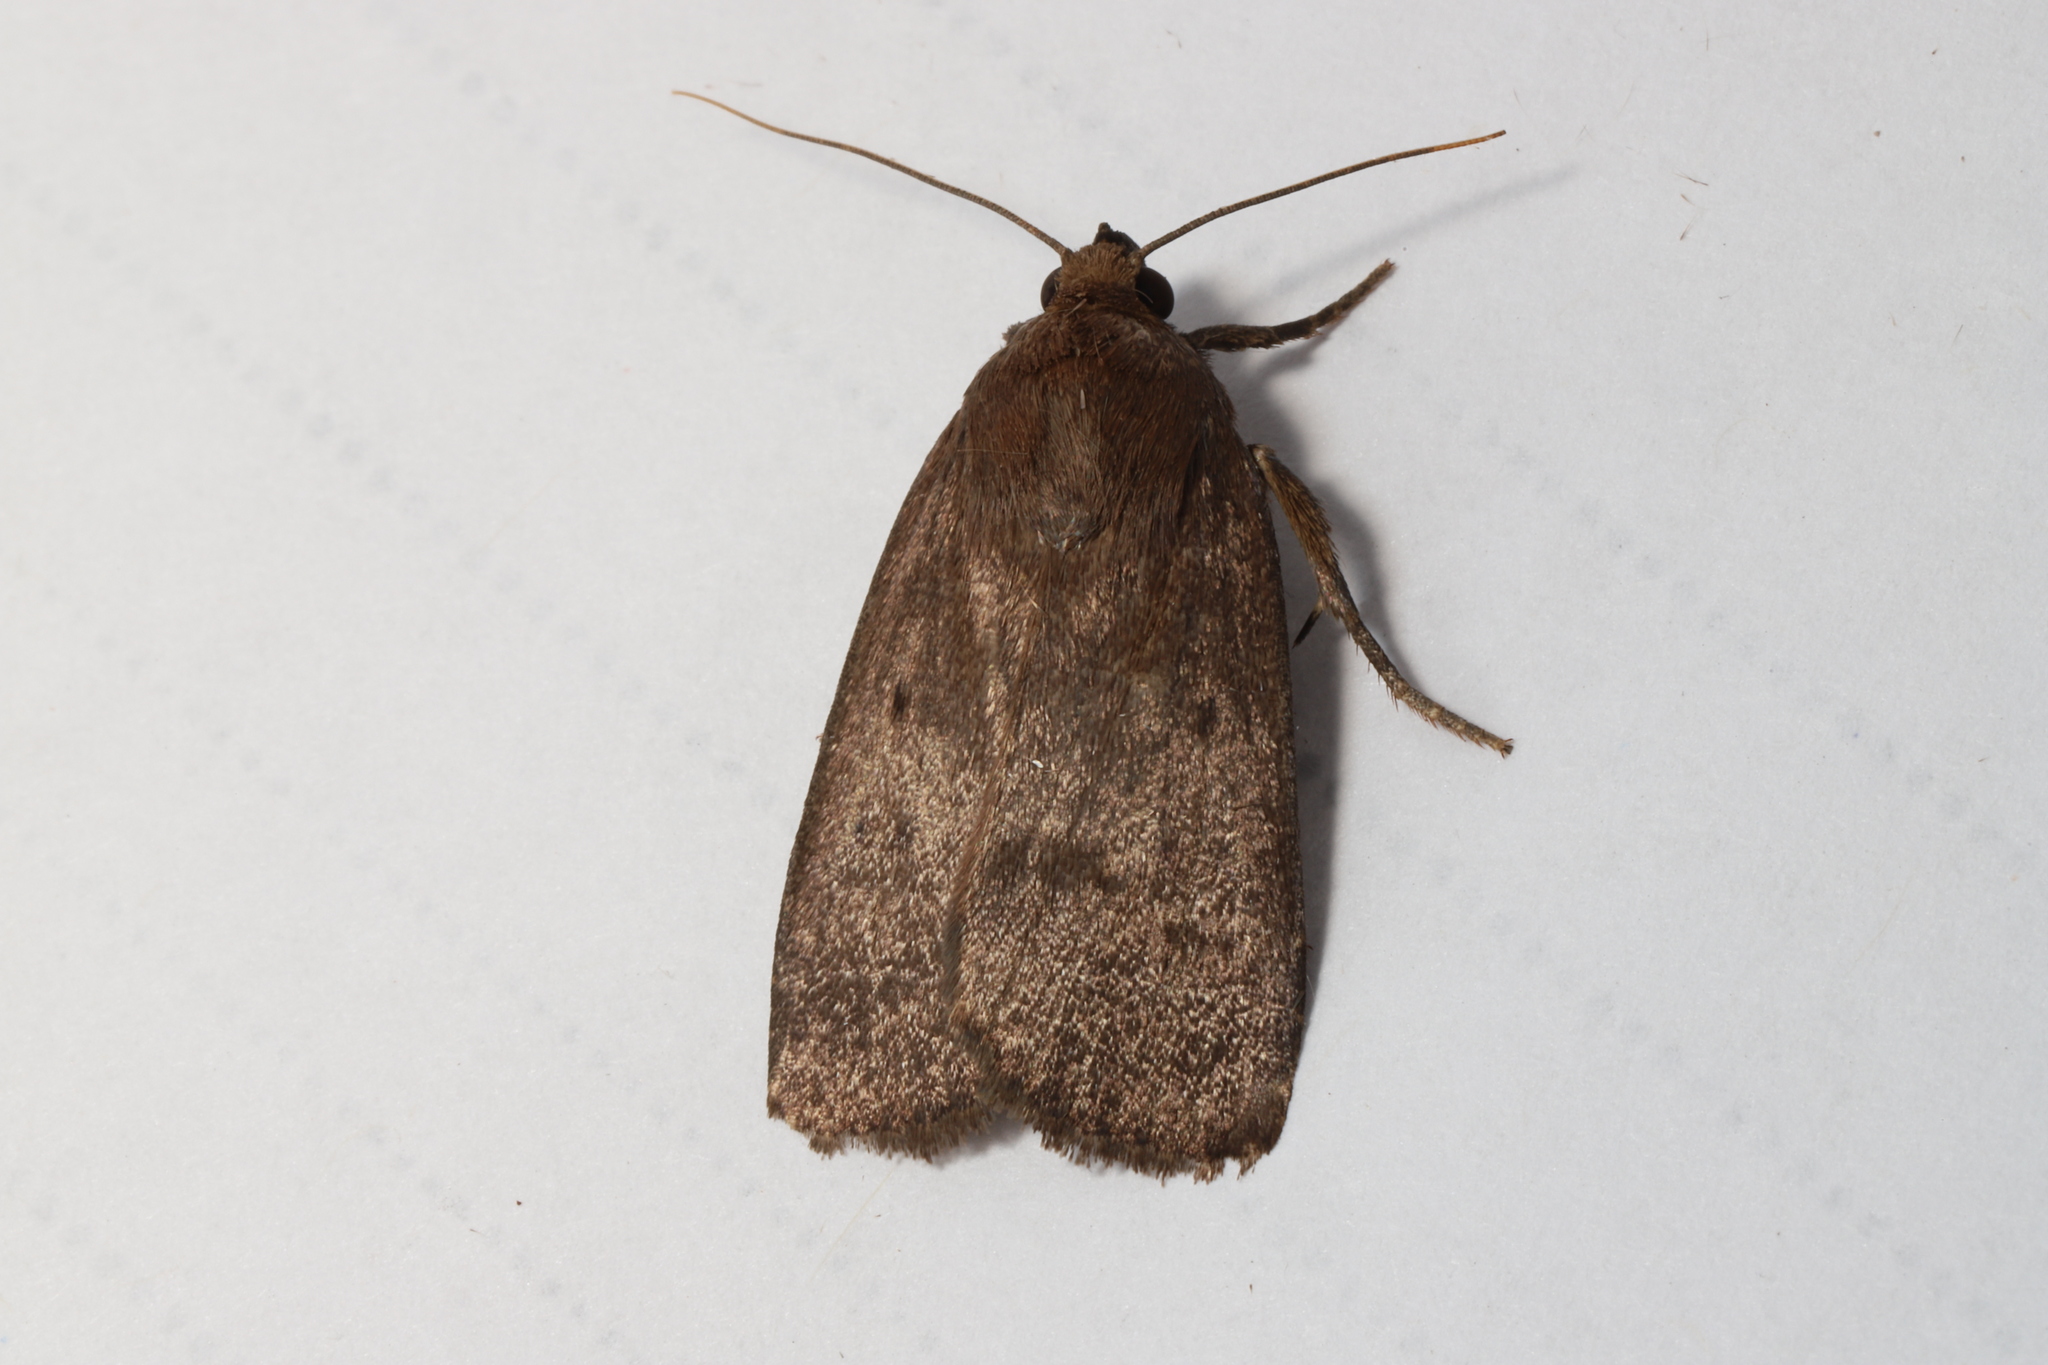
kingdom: Animalia
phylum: Arthropoda
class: Insecta
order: Lepidoptera
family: Noctuidae
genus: Amphipyra
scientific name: Amphipyra tragopoginis
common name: Mouse moth
